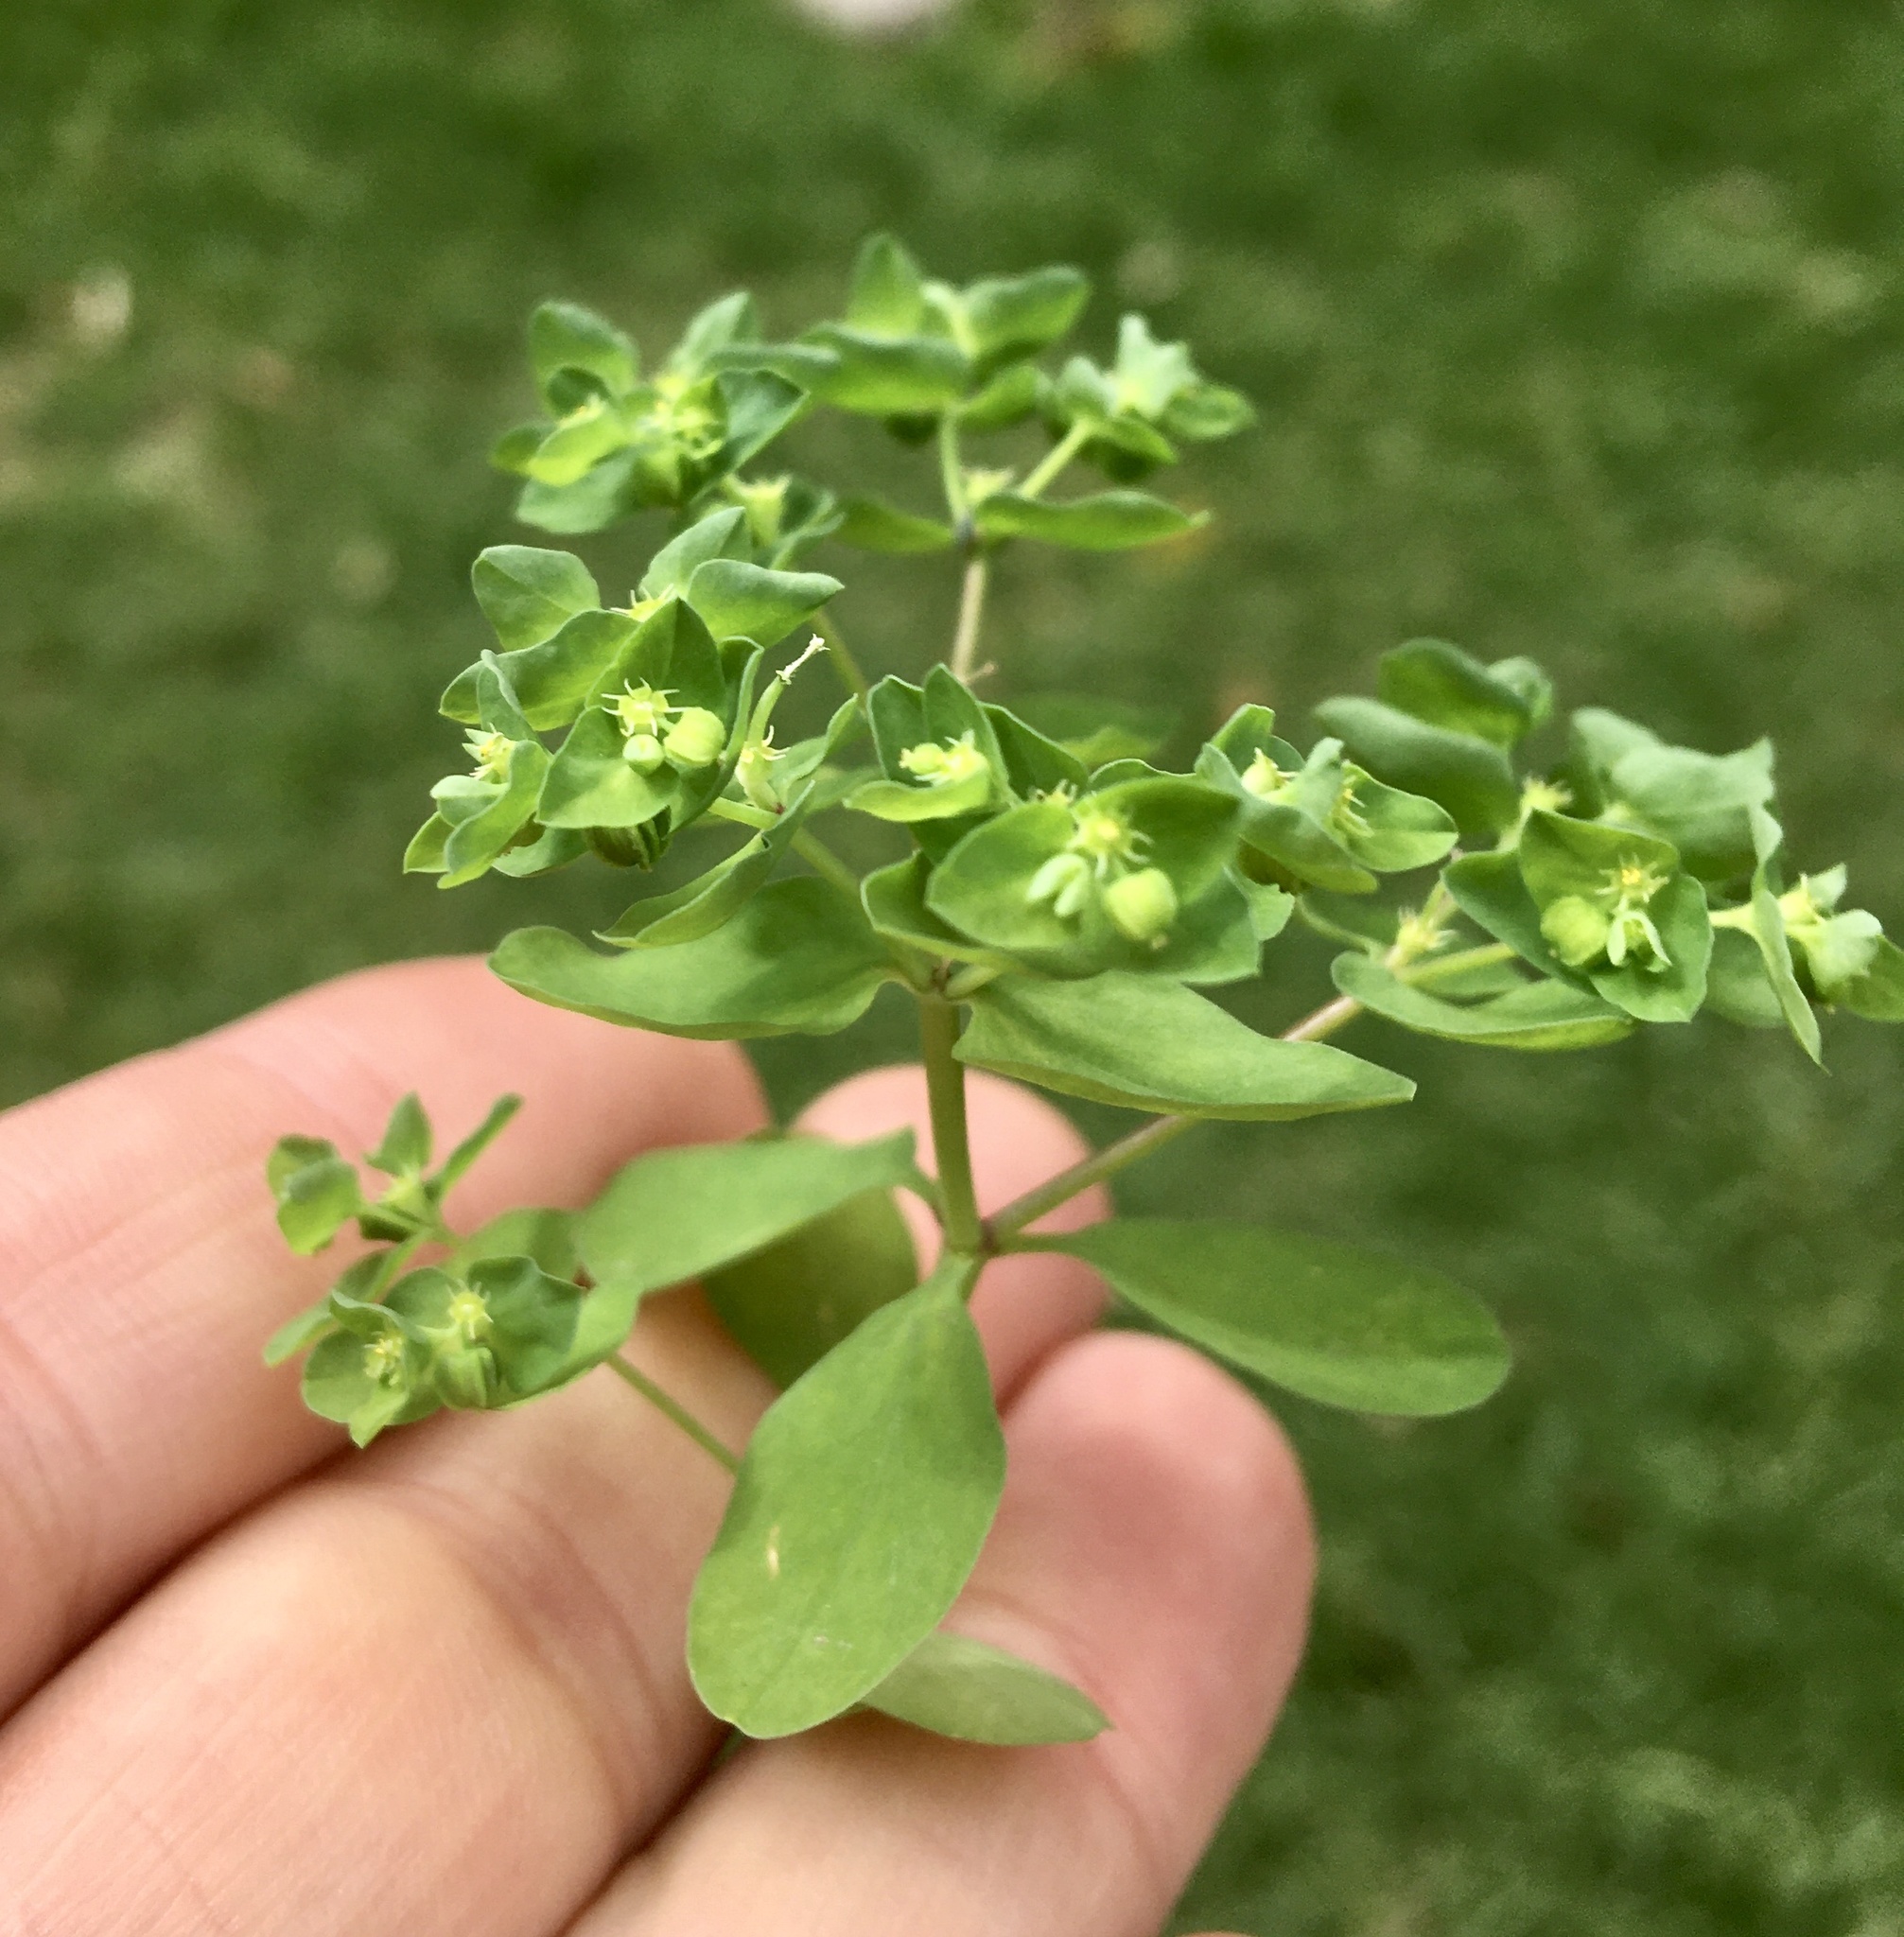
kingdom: Plantae
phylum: Tracheophyta
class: Magnoliopsida
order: Malpighiales
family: Euphorbiaceae
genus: Euphorbia
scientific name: Euphorbia peplus
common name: Petty spurge
